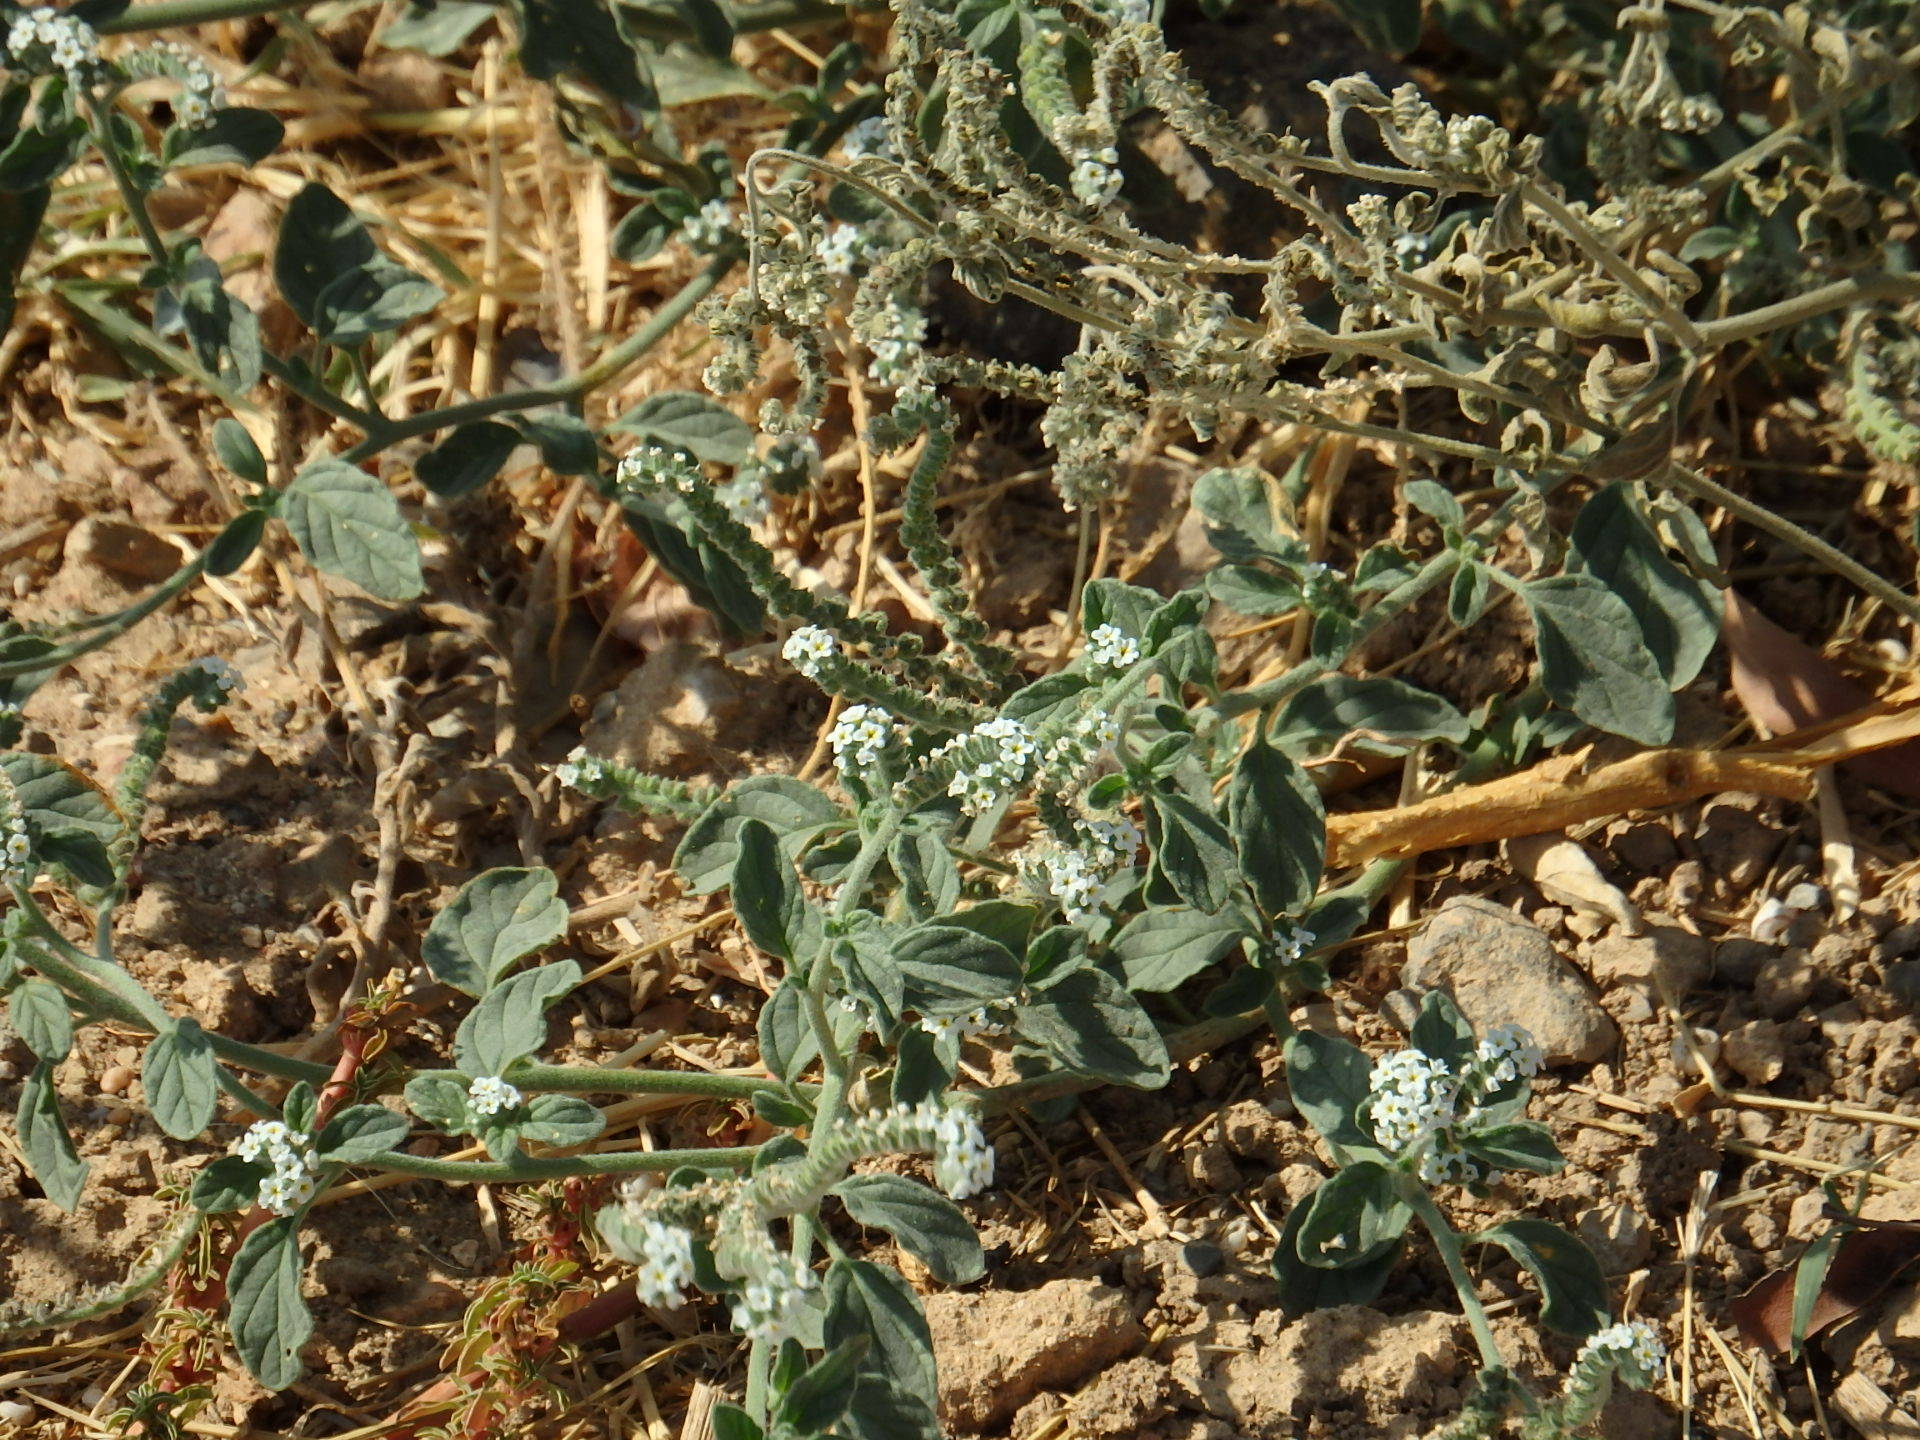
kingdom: Plantae
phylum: Tracheophyta
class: Magnoliopsida
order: Boraginales
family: Heliotropiaceae
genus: Heliotropium
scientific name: Heliotropium europaeum
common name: European heliotrope
